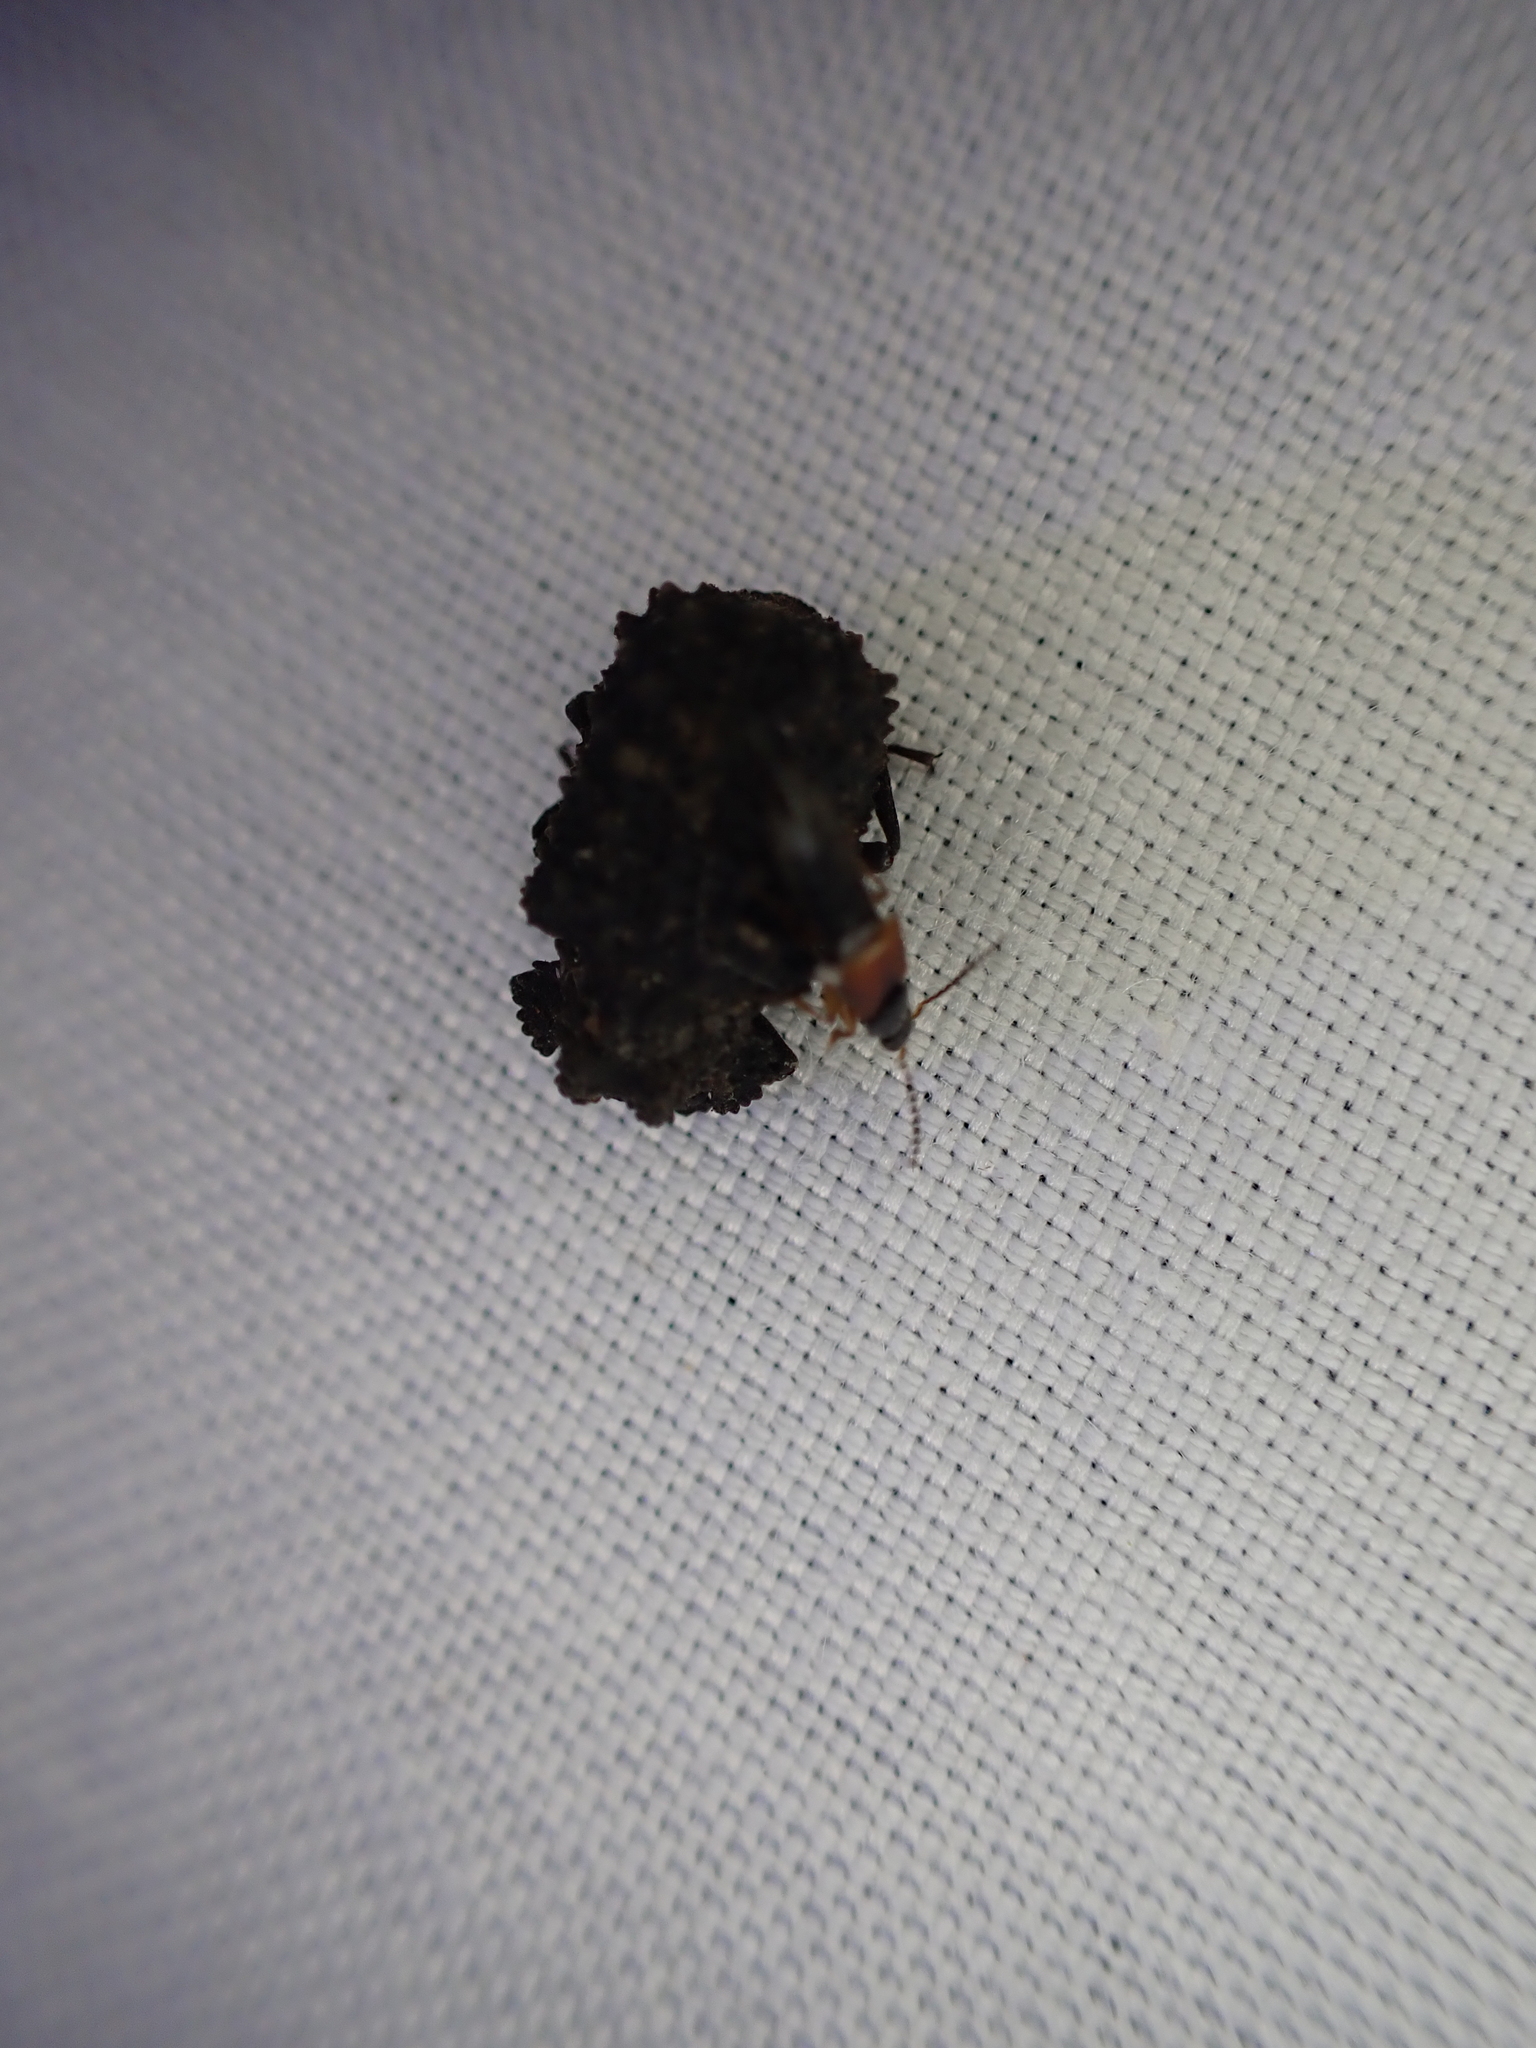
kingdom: Animalia
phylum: Arthropoda
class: Insecta
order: Coleoptera
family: Tenebrionidae
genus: Gnatocerus
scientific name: Gnatocerus cornutus
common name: Broad-horned flour beetle
